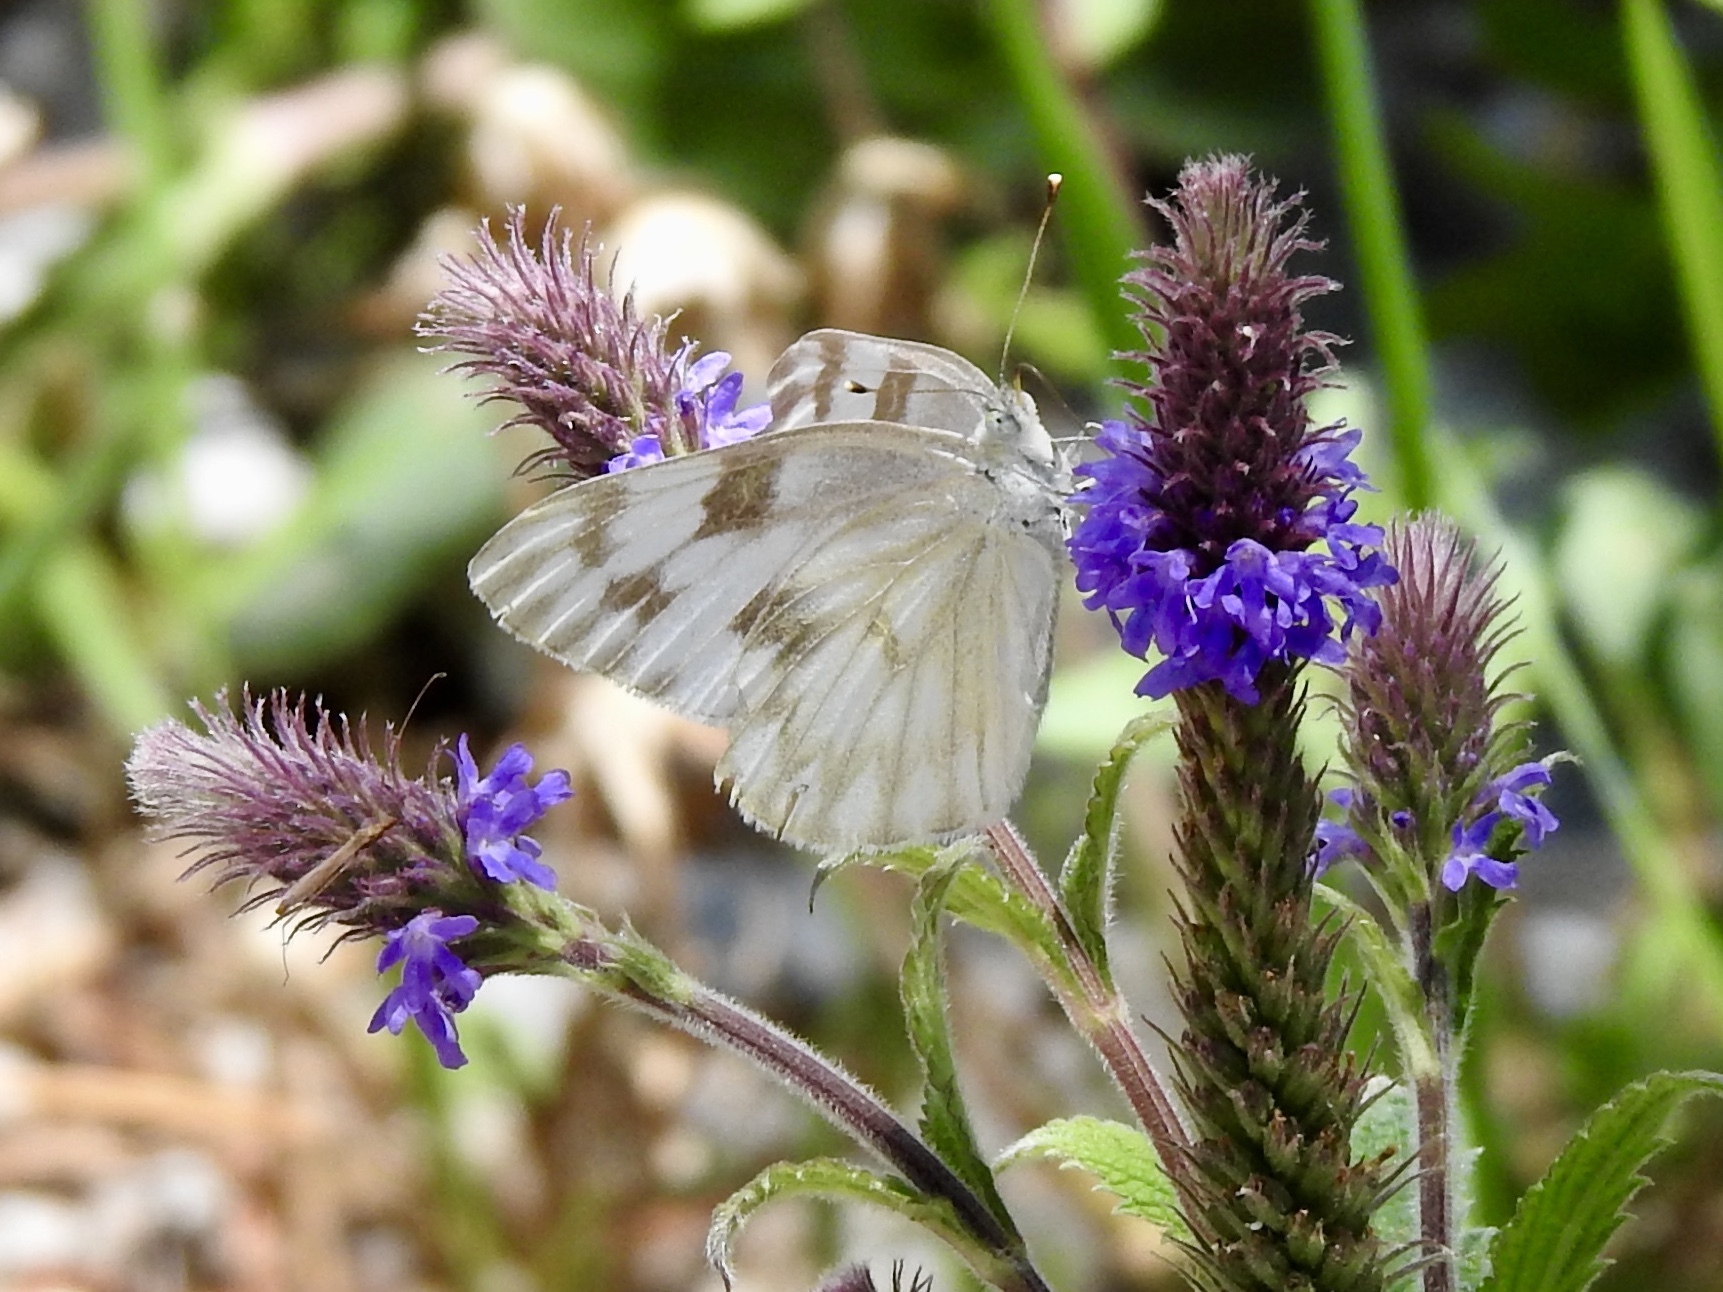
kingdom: Animalia
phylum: Arthropoda
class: Insecta
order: Lepidoptera
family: Pieridae
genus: Pontia
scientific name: Pontia protodice
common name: Checkered white
